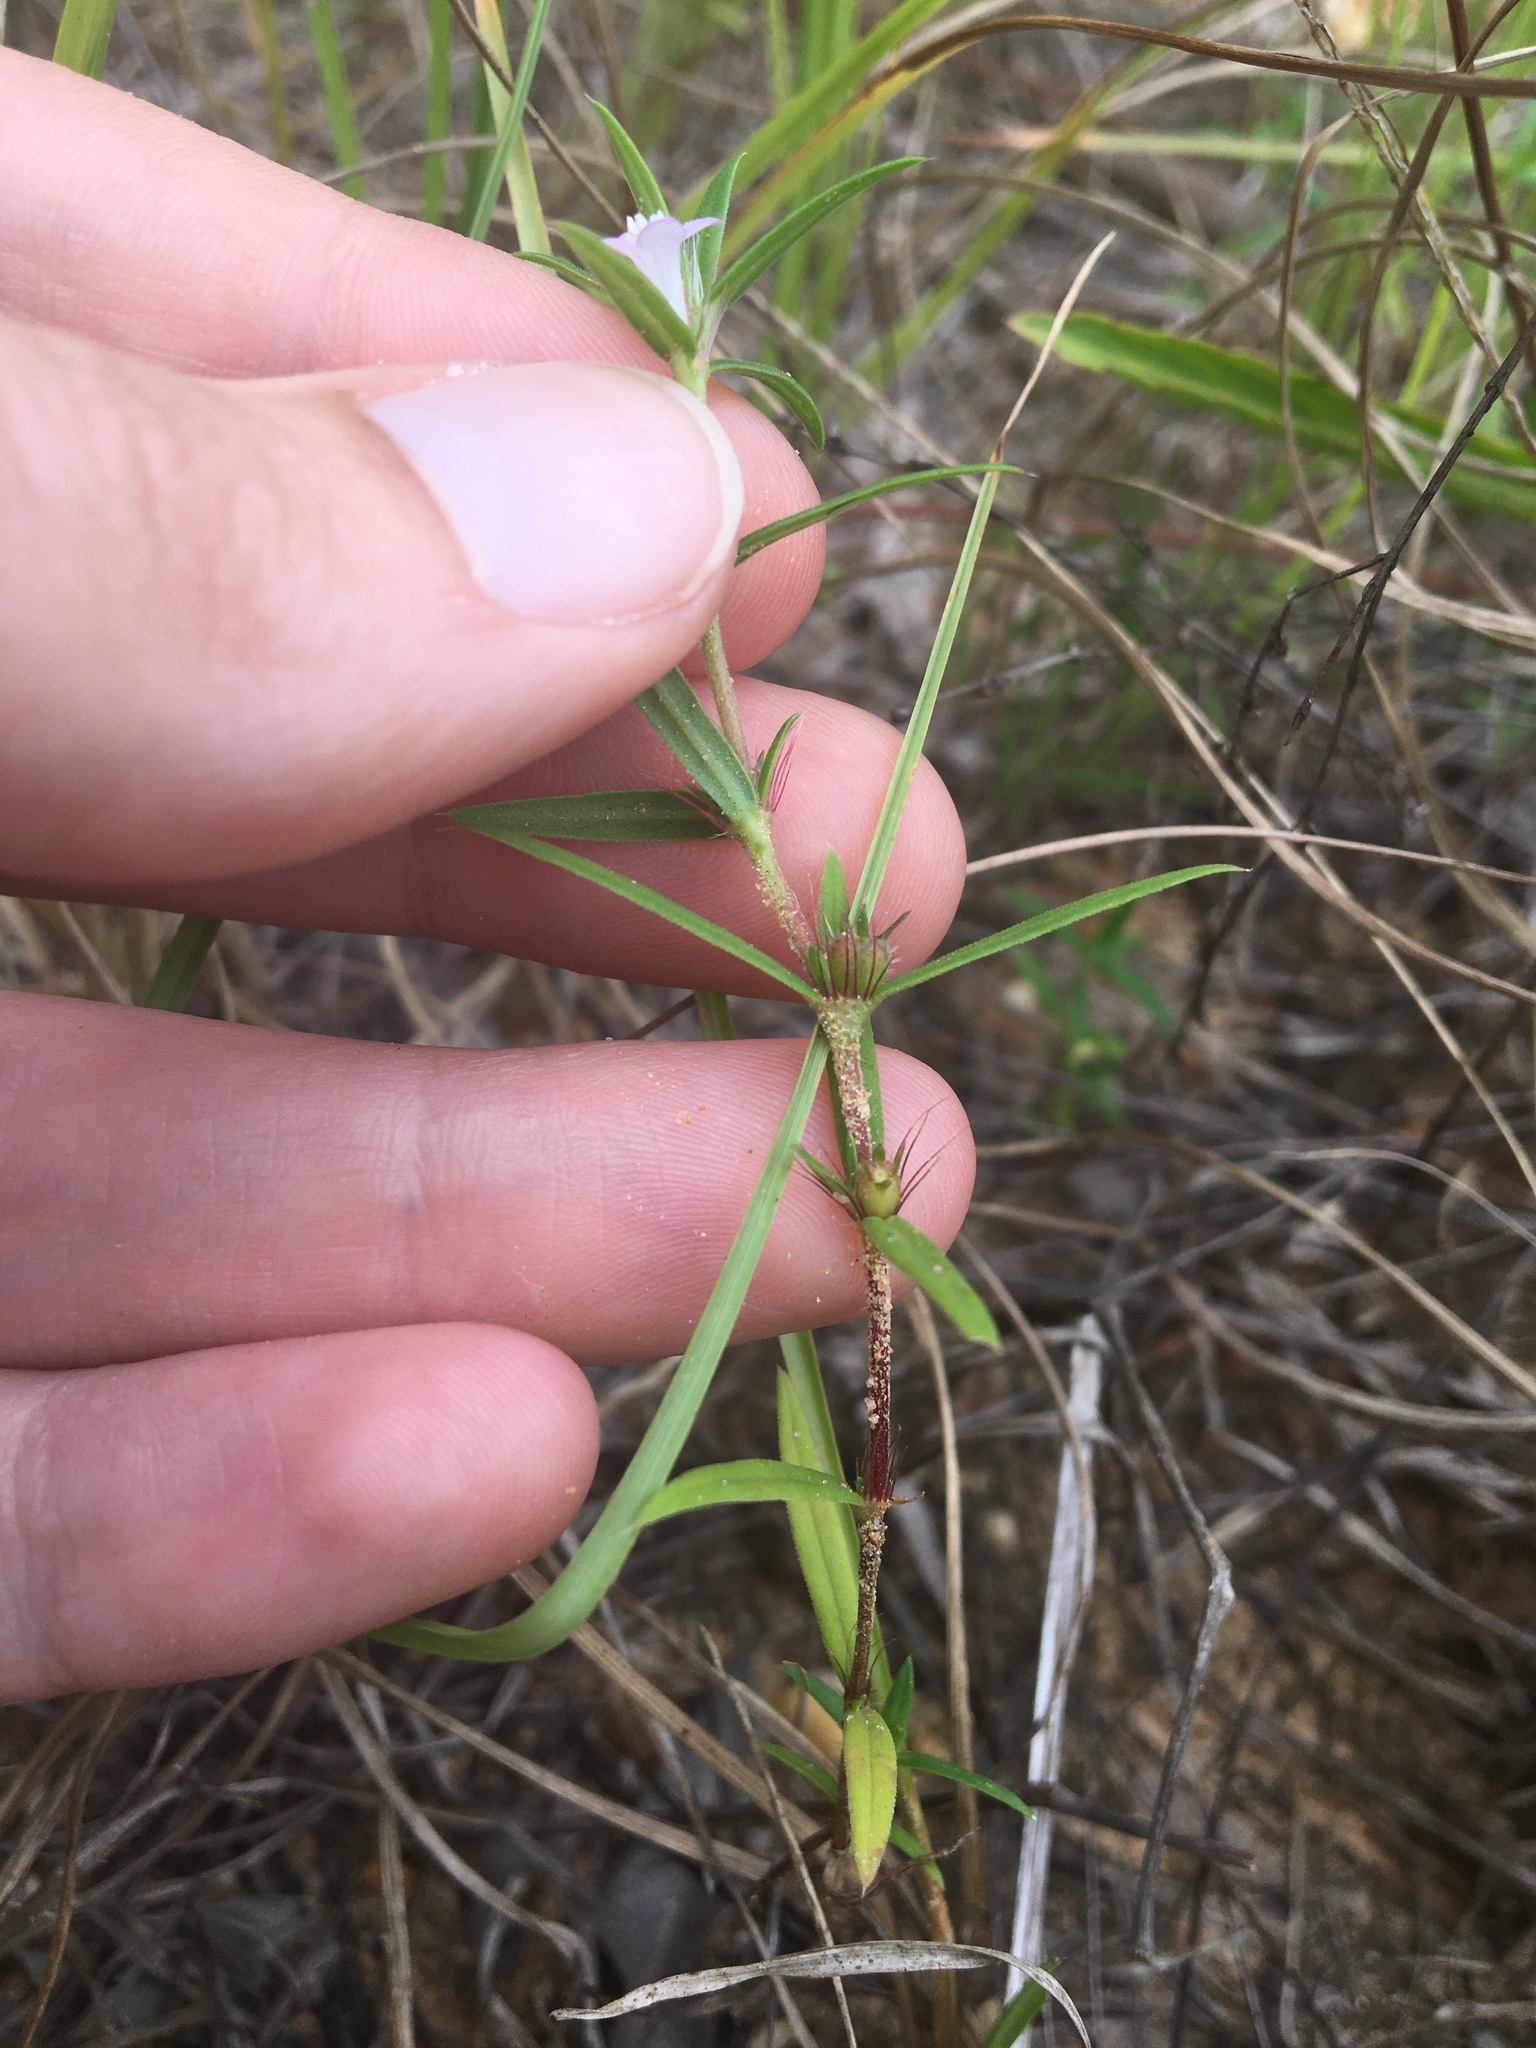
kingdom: Plantae
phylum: Tracheophyta
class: Magnoliopsida
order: Gentianales
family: Rubiaceae
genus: Hexasepalum
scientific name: Hexasepalum teres
